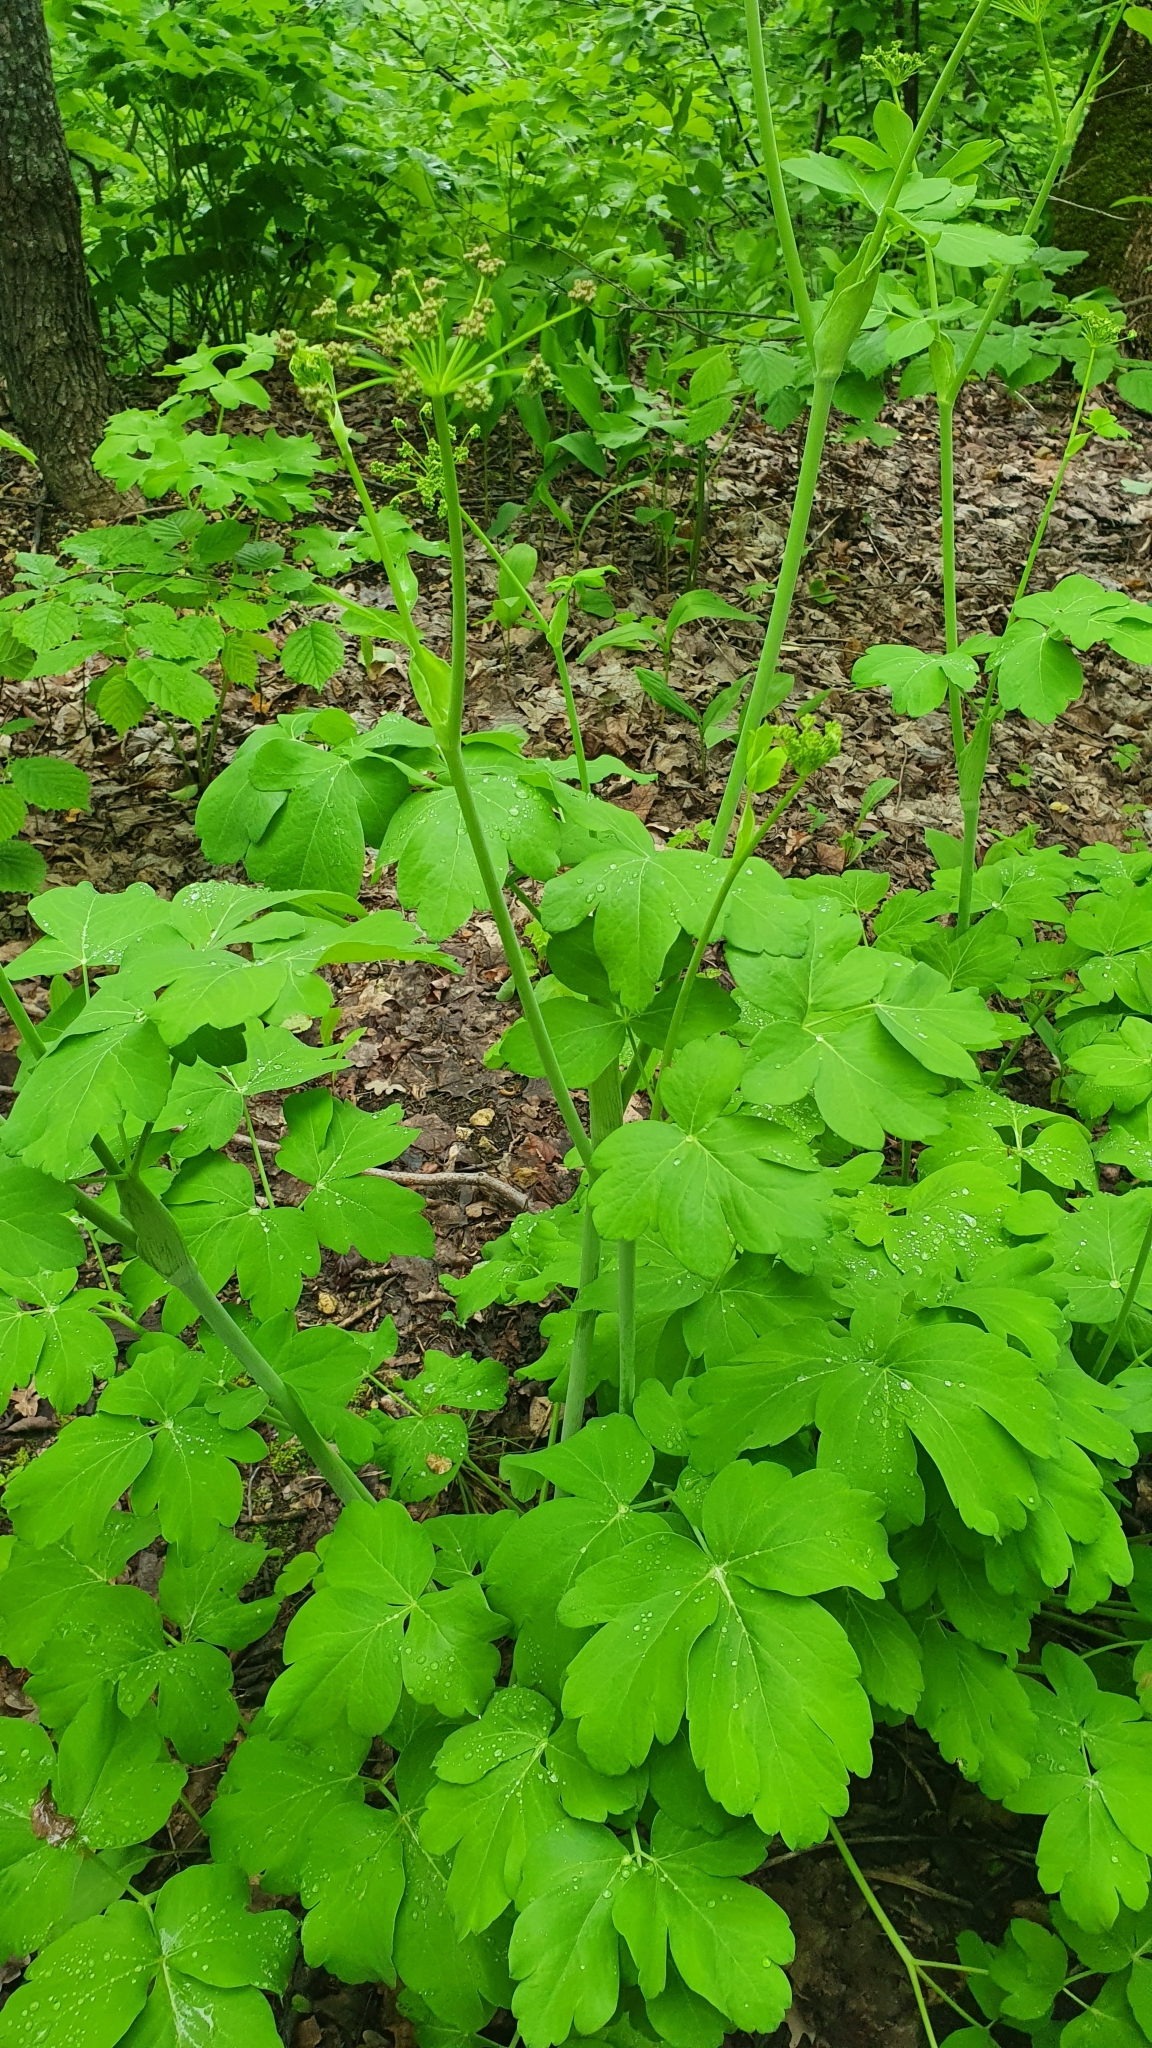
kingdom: Plantae
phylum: Tracheophyta
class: Magnoliopsida
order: Apiales
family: Apiaceae
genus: Laser
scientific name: Laser trilobum
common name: Laser
